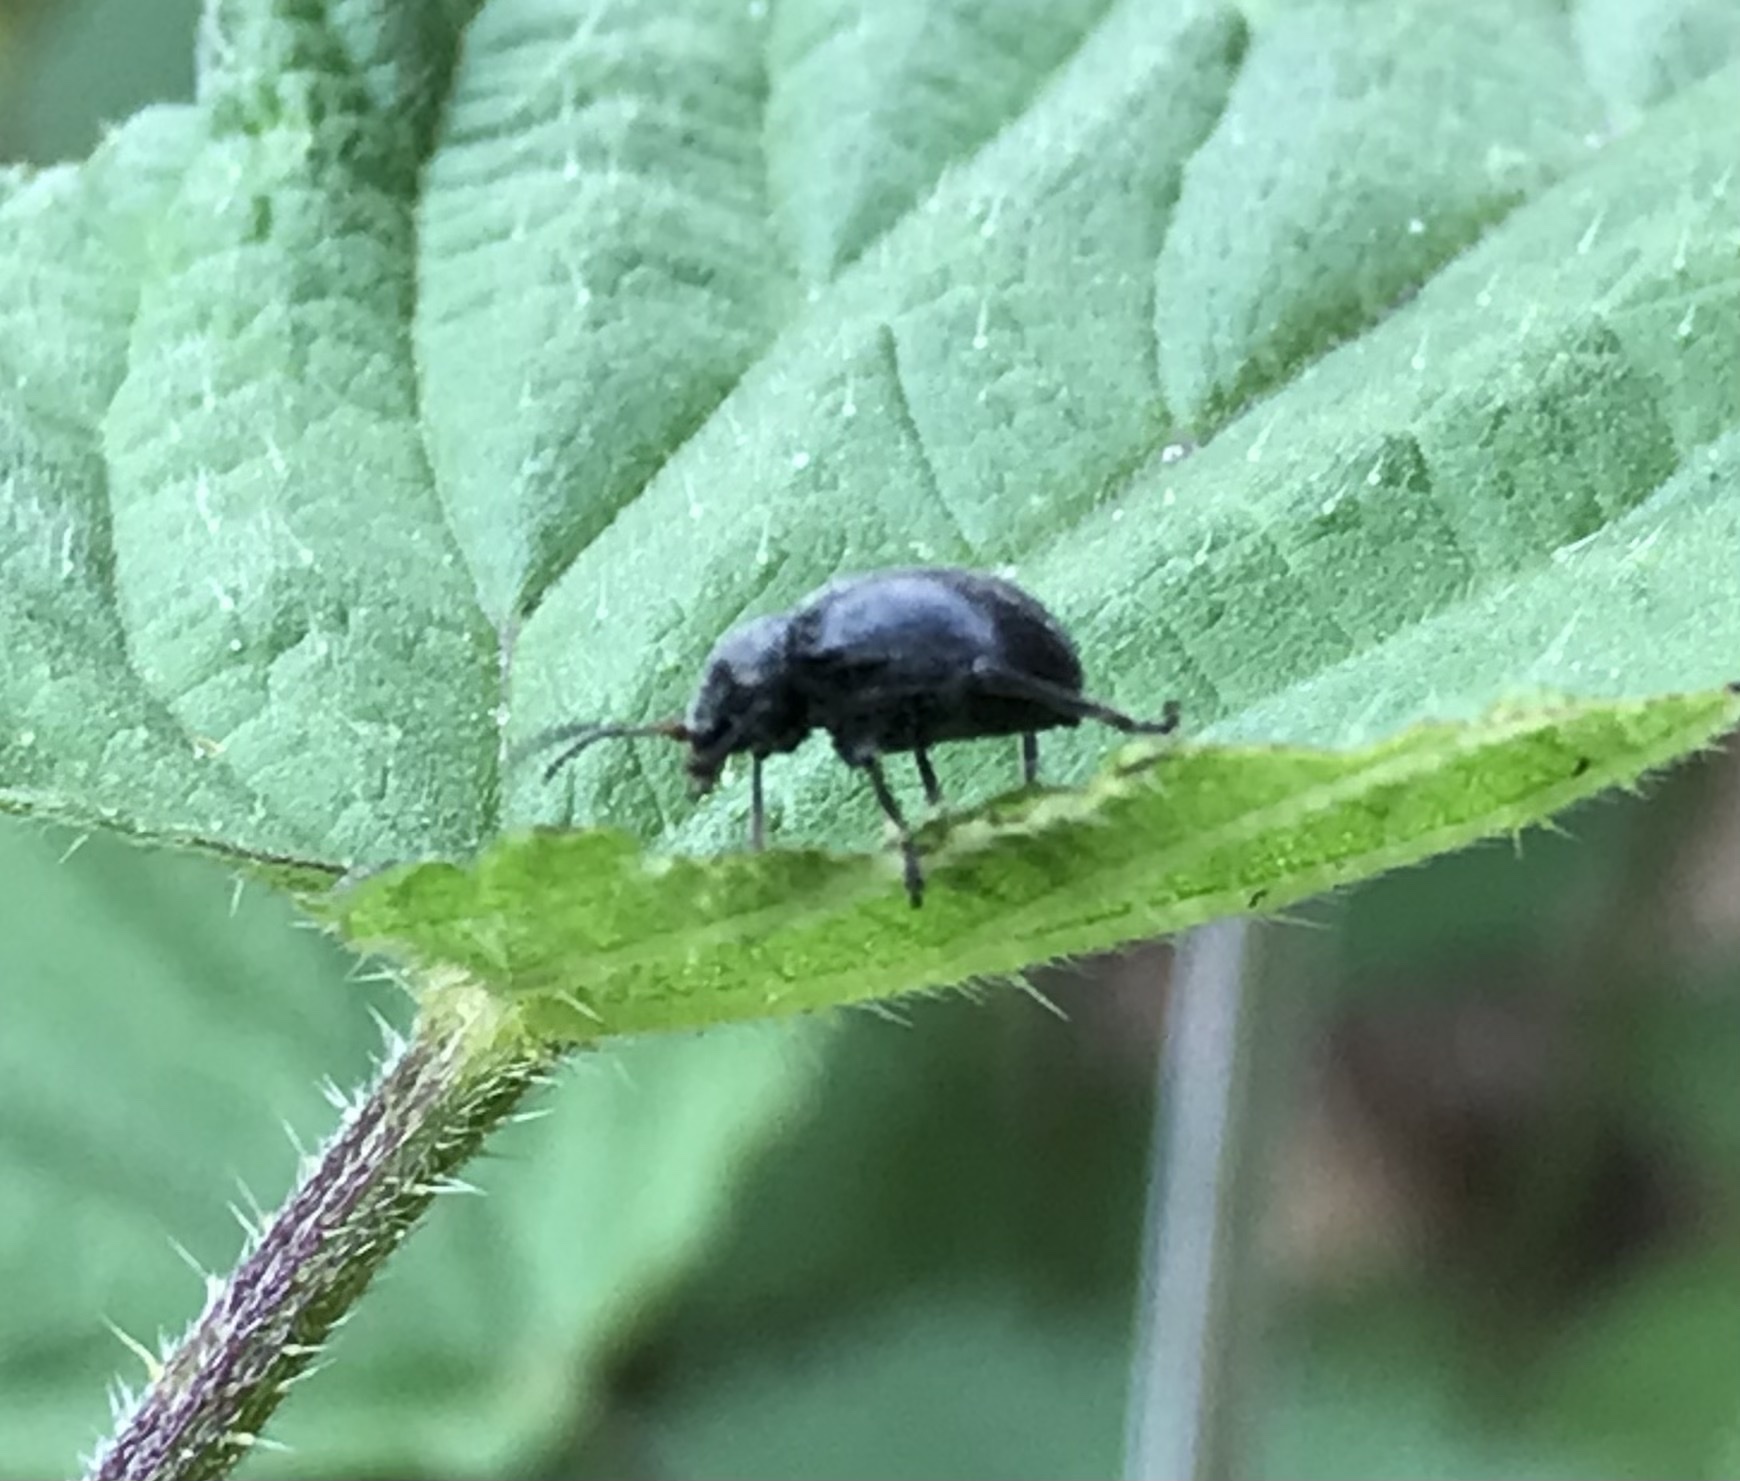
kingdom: Animalia
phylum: Arthropoda
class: Insecta
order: Coleoptera
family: Chrysomelidae
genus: Bromius
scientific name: Bromius obscurus
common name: Western grape rootworm
